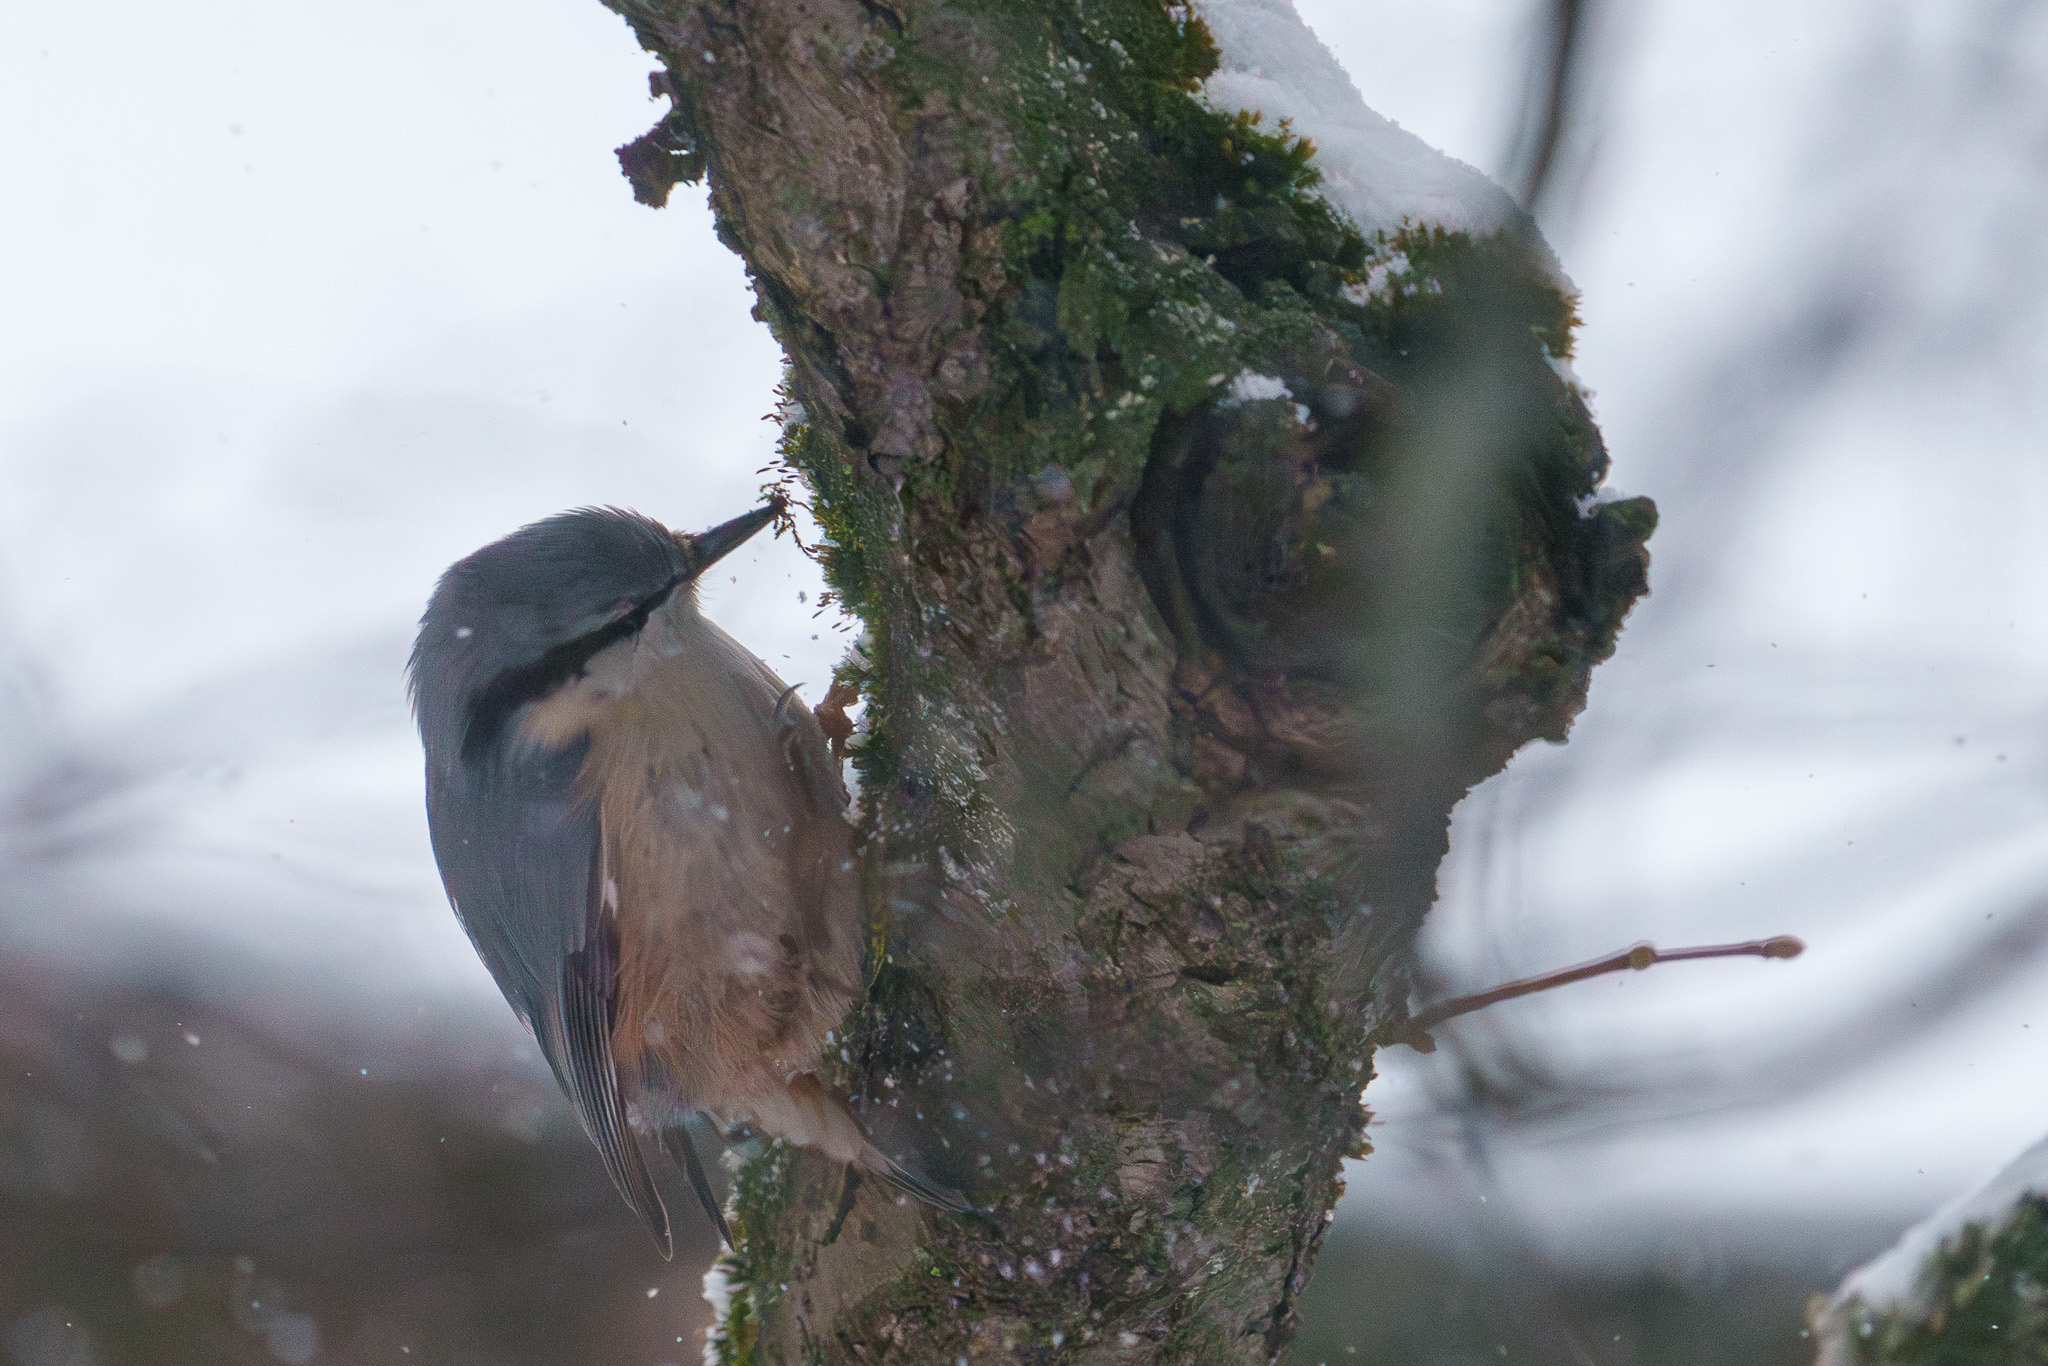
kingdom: Animalia
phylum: Chordata
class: Aves
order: Passeriformes
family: Sittidae
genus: Sitta
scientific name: Sitta europaea
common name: Eurasian nuthatch
